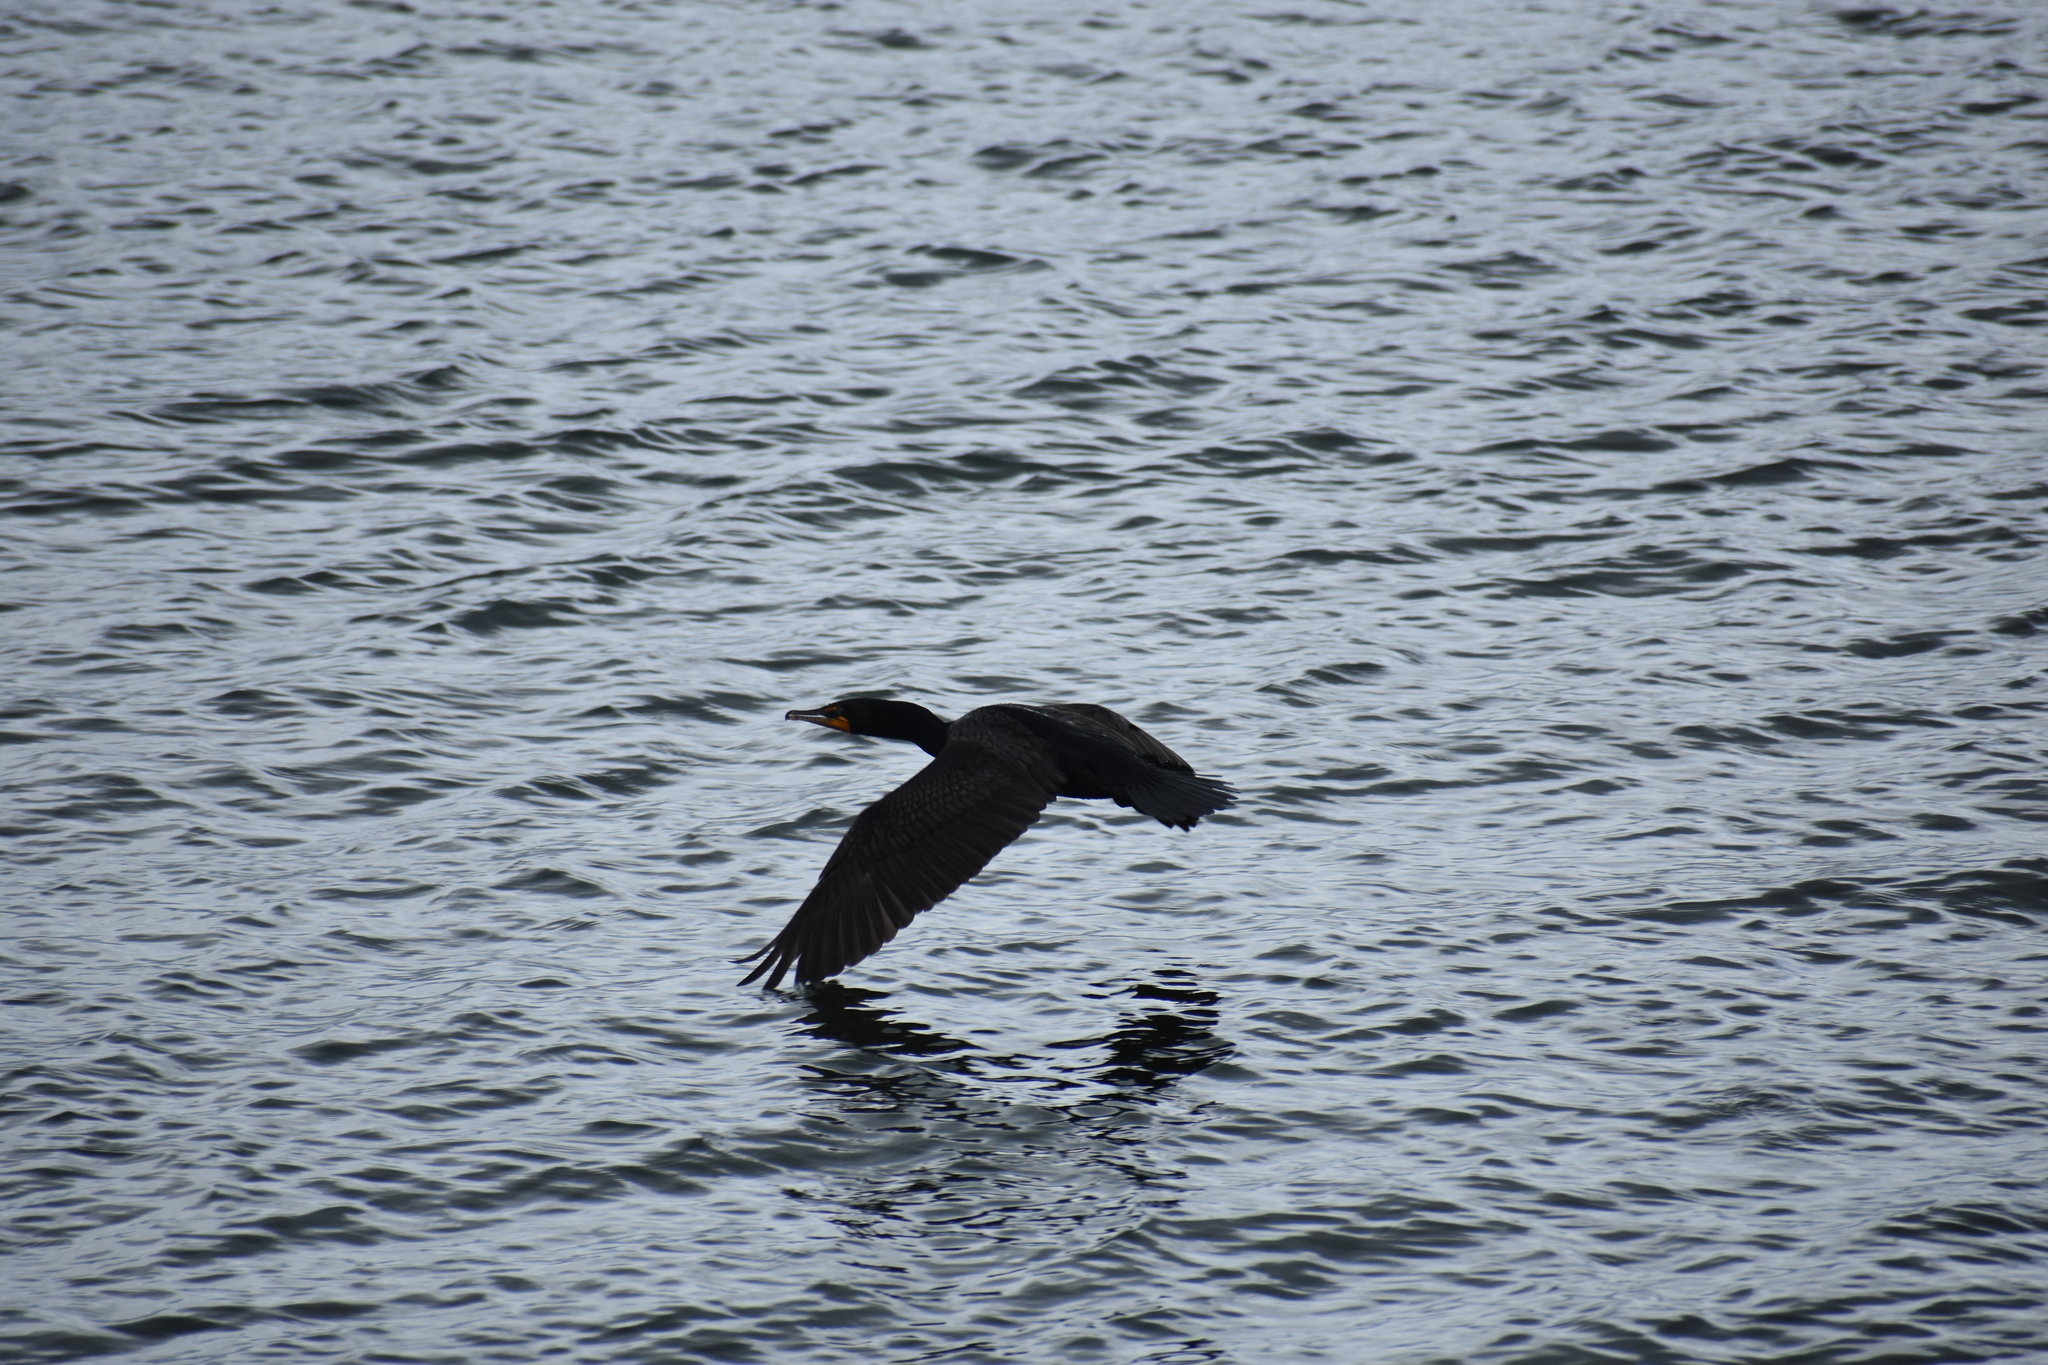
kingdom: Animalia
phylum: Chordata
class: Aves
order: Suliformes
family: Phalacrocoracidae
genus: Phalacrocorax
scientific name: Phalacrocorax auritus
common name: Double-crested cormorant
